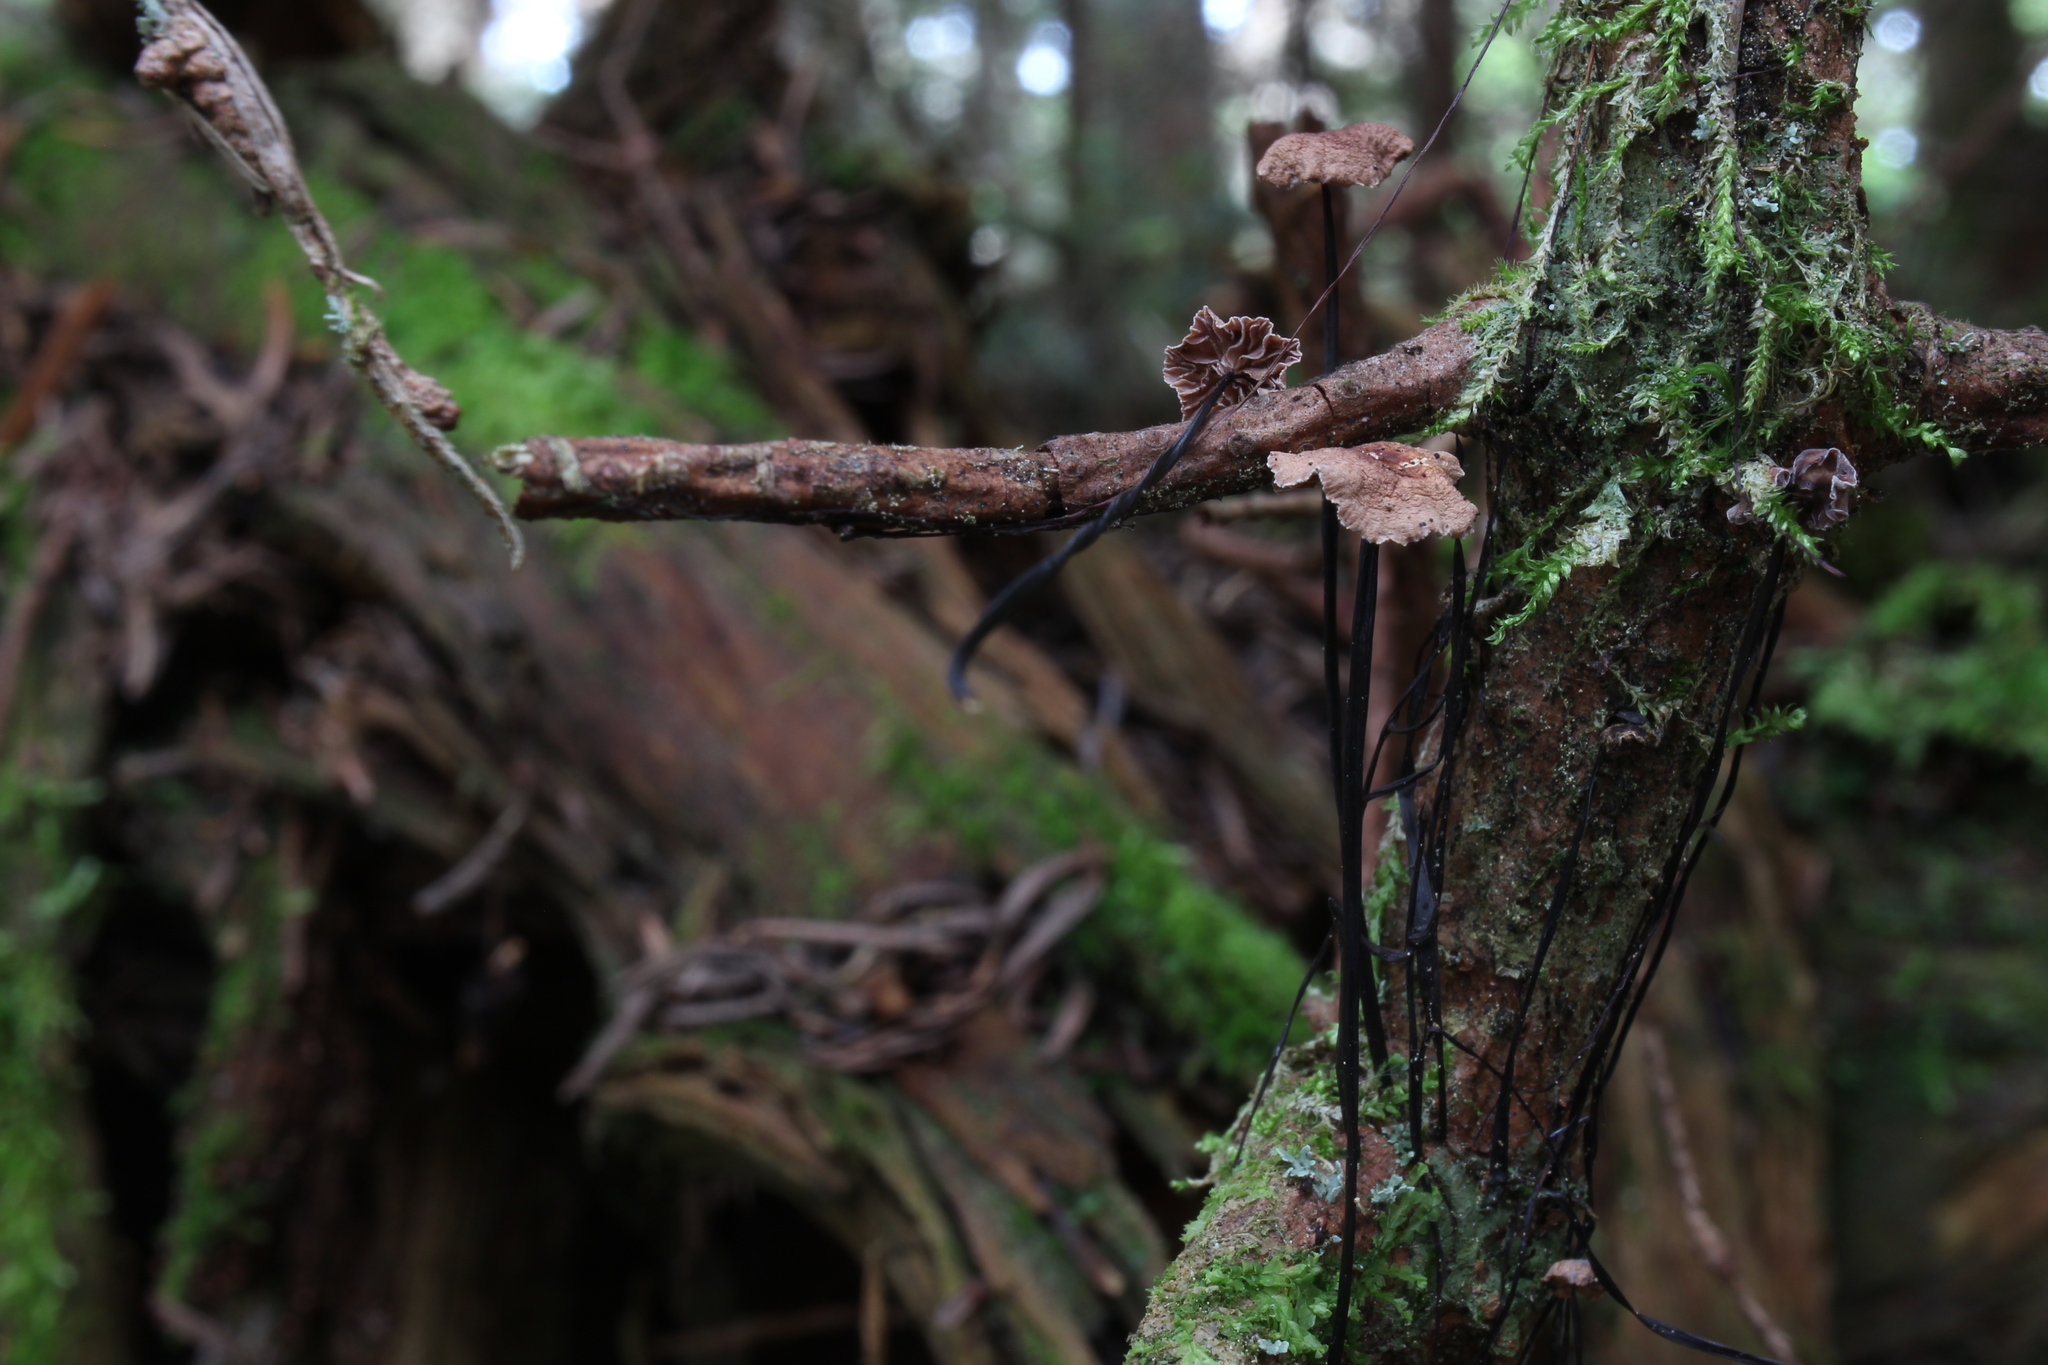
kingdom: Fungi
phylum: Basidiomycota
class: Agaricomycetes
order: Agaricales
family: Omphalotaceae
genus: Gymnopus
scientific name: Gymnopus androsaceus
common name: Horse-hair fungus
